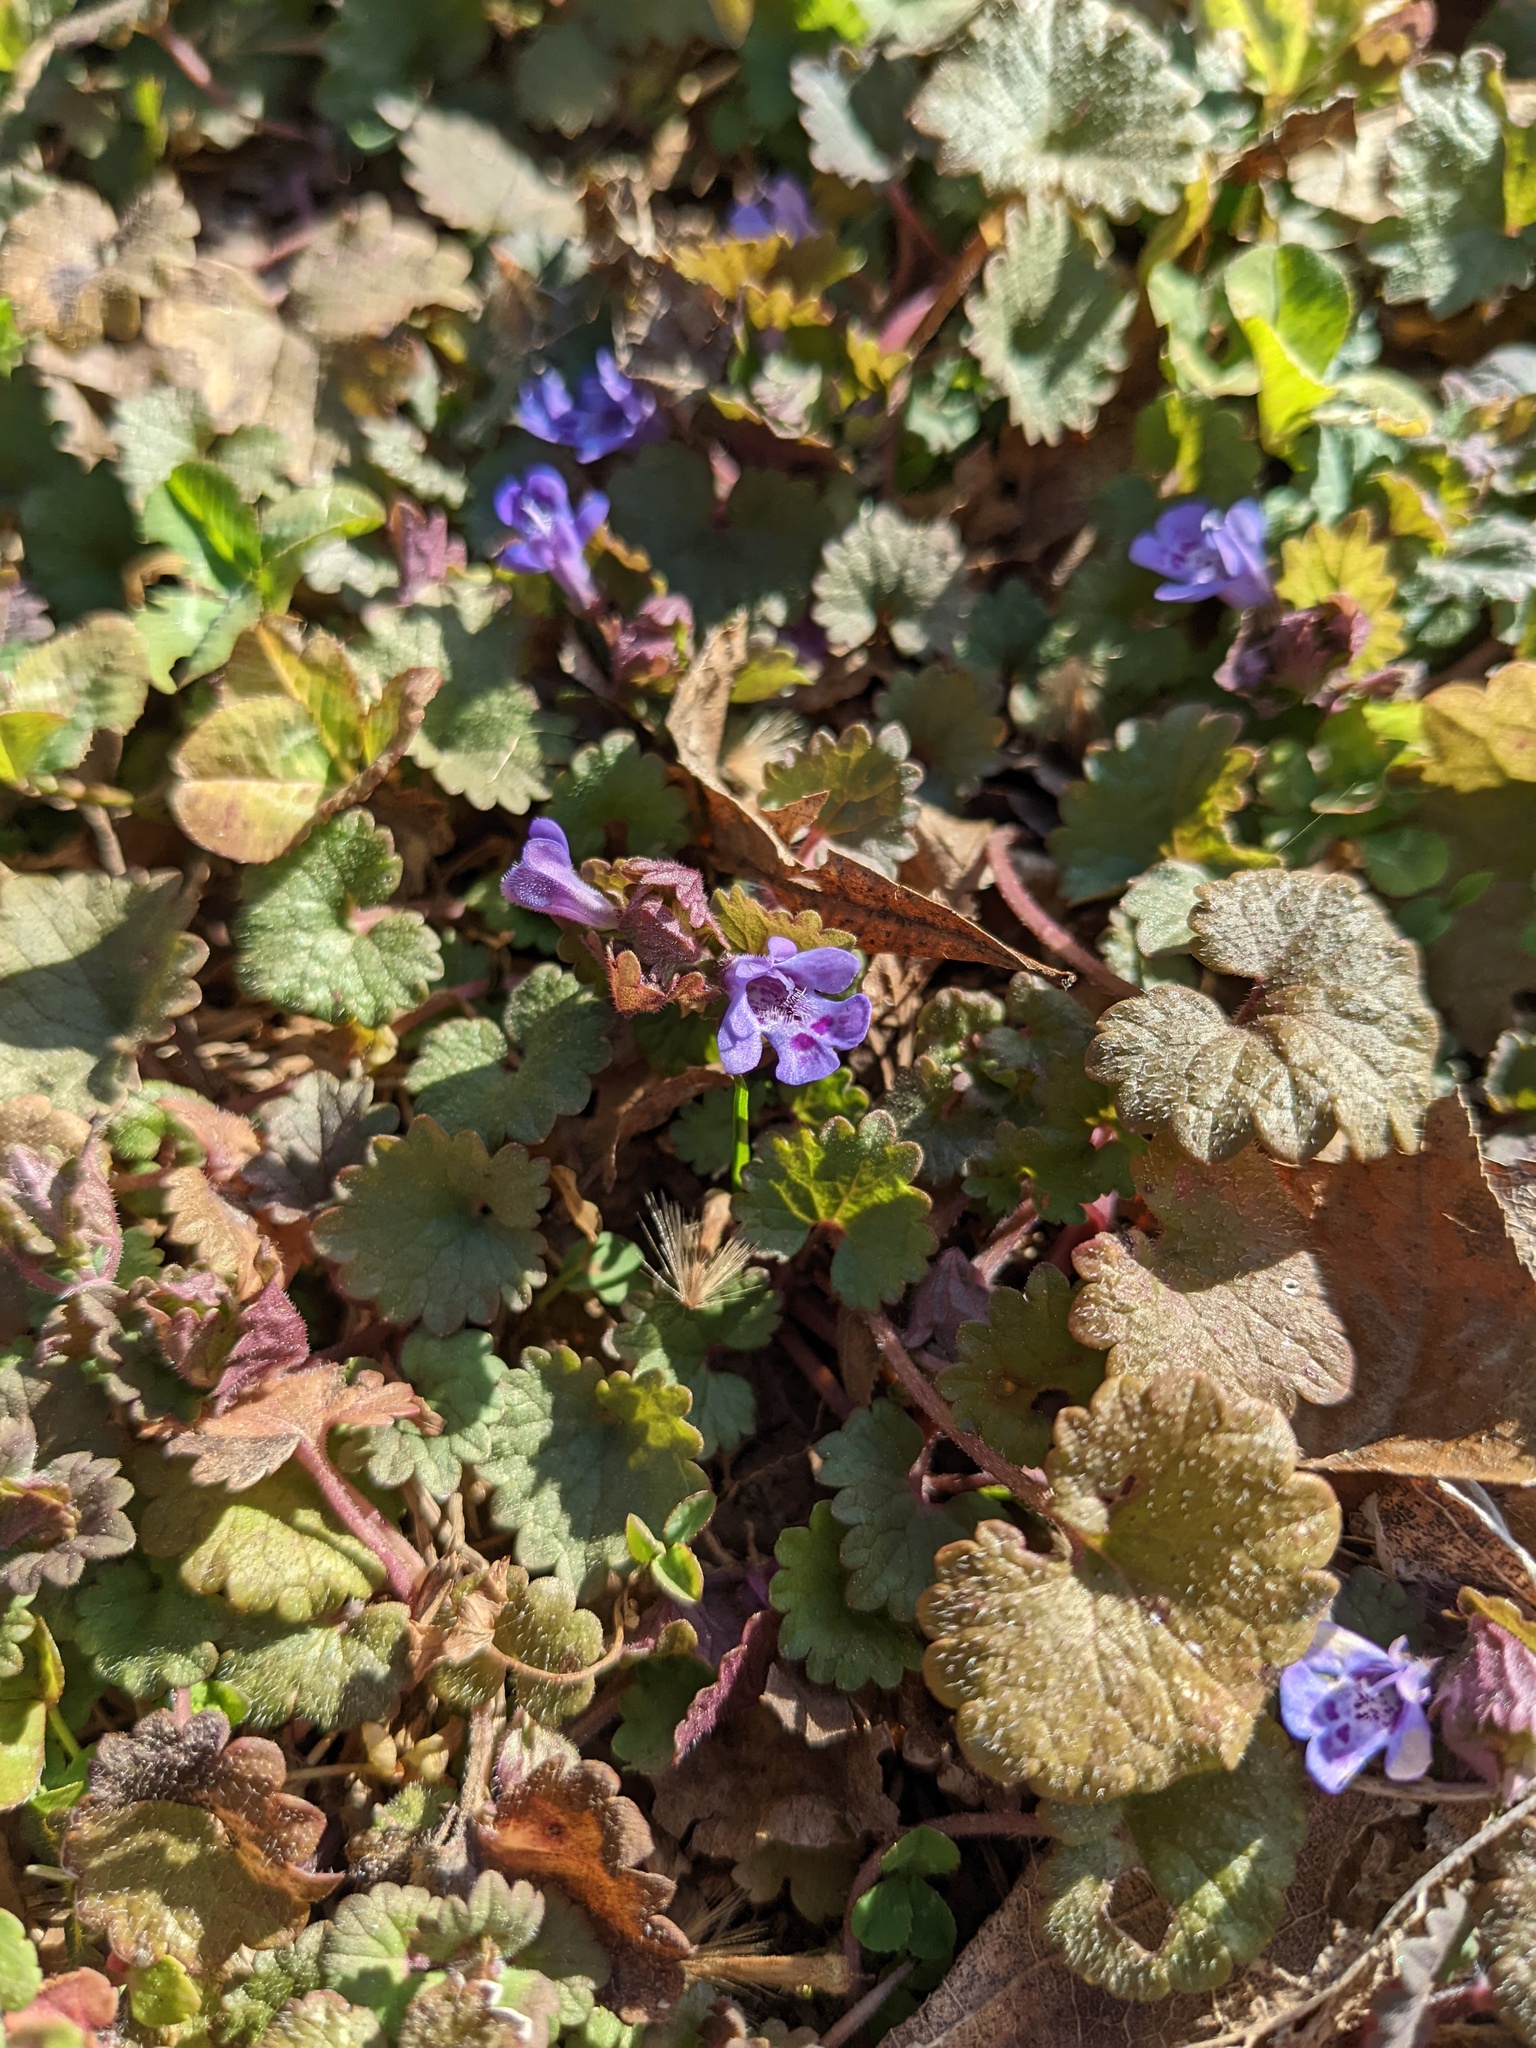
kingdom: Plantae
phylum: Tracheophyta
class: Magnoliopsida
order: Lamiales
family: Lamiaceae
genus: Glechoma
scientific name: Glechoma hederacea
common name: Ground ivy
